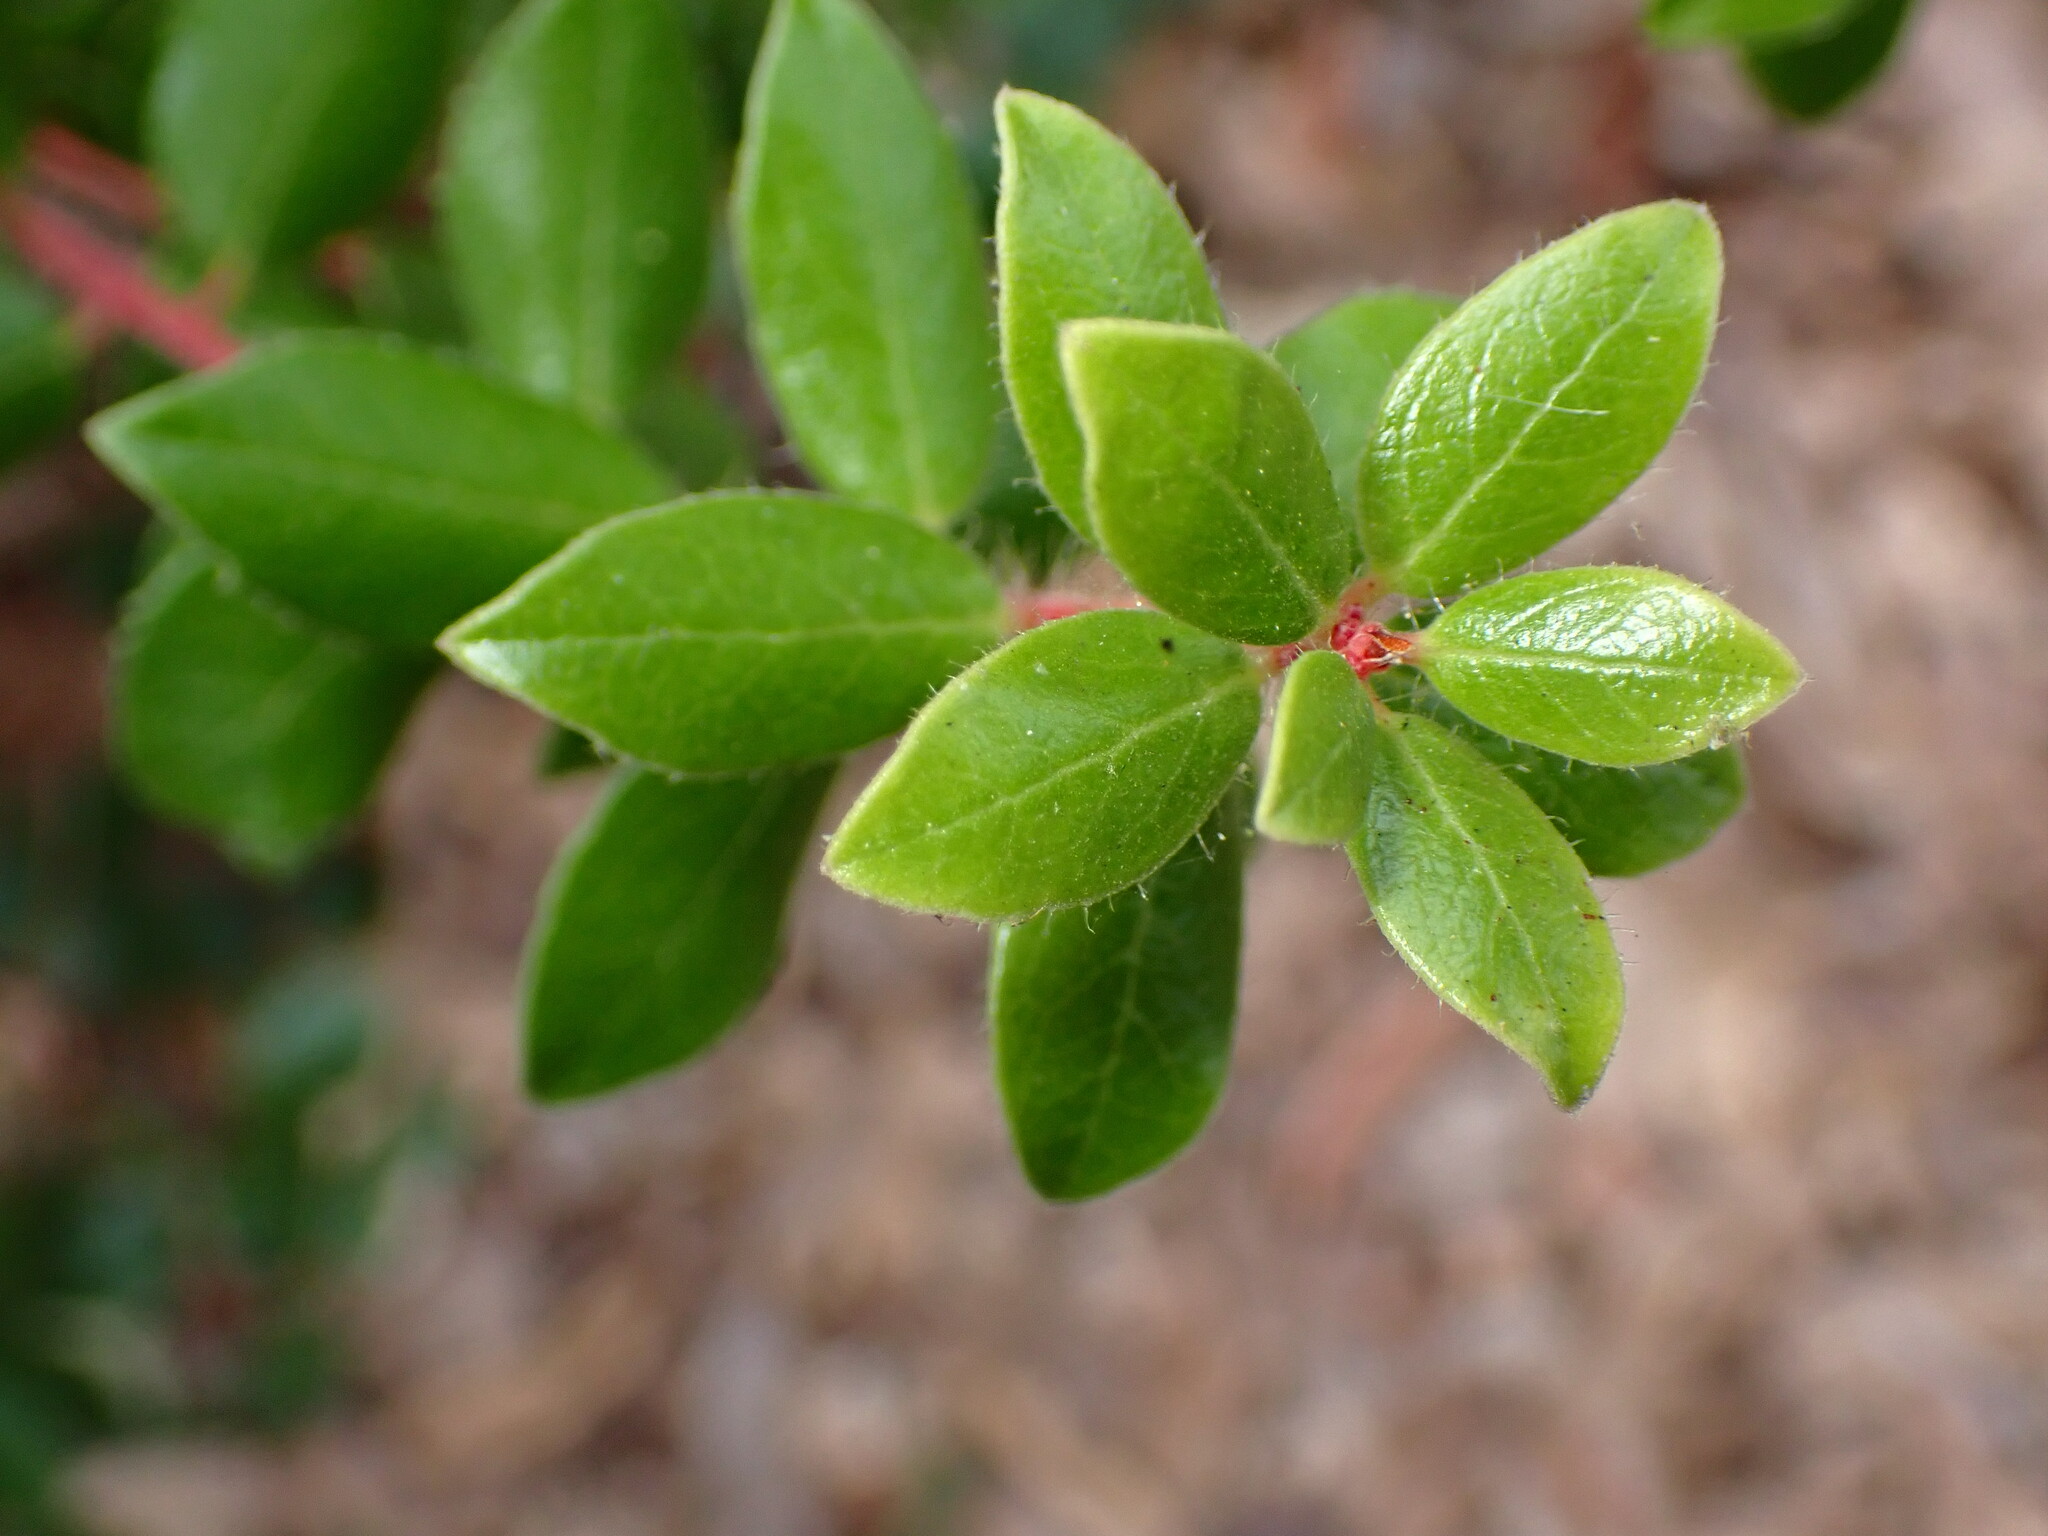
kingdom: Plantae
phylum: Tracheophyta
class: Magnoliopsida
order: Ericales
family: Ericaceae
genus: Arctostaphylos
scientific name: Arctostaphylos nummularia
